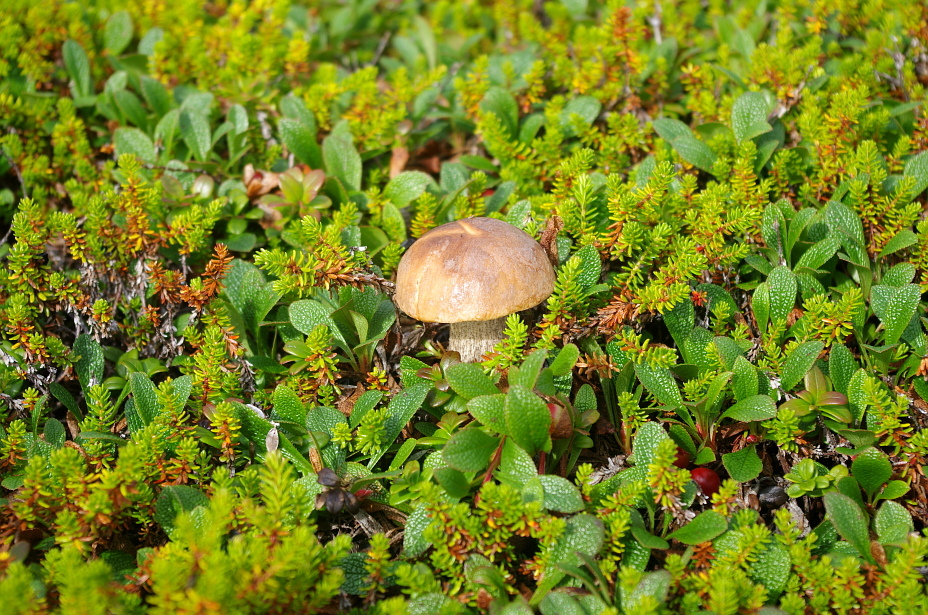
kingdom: Plantae
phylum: Tracheophyta
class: Magnoliopsida
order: Ericales
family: Ericaceae
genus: Empetrum
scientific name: Empetrum nigrum
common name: Black crowberry
